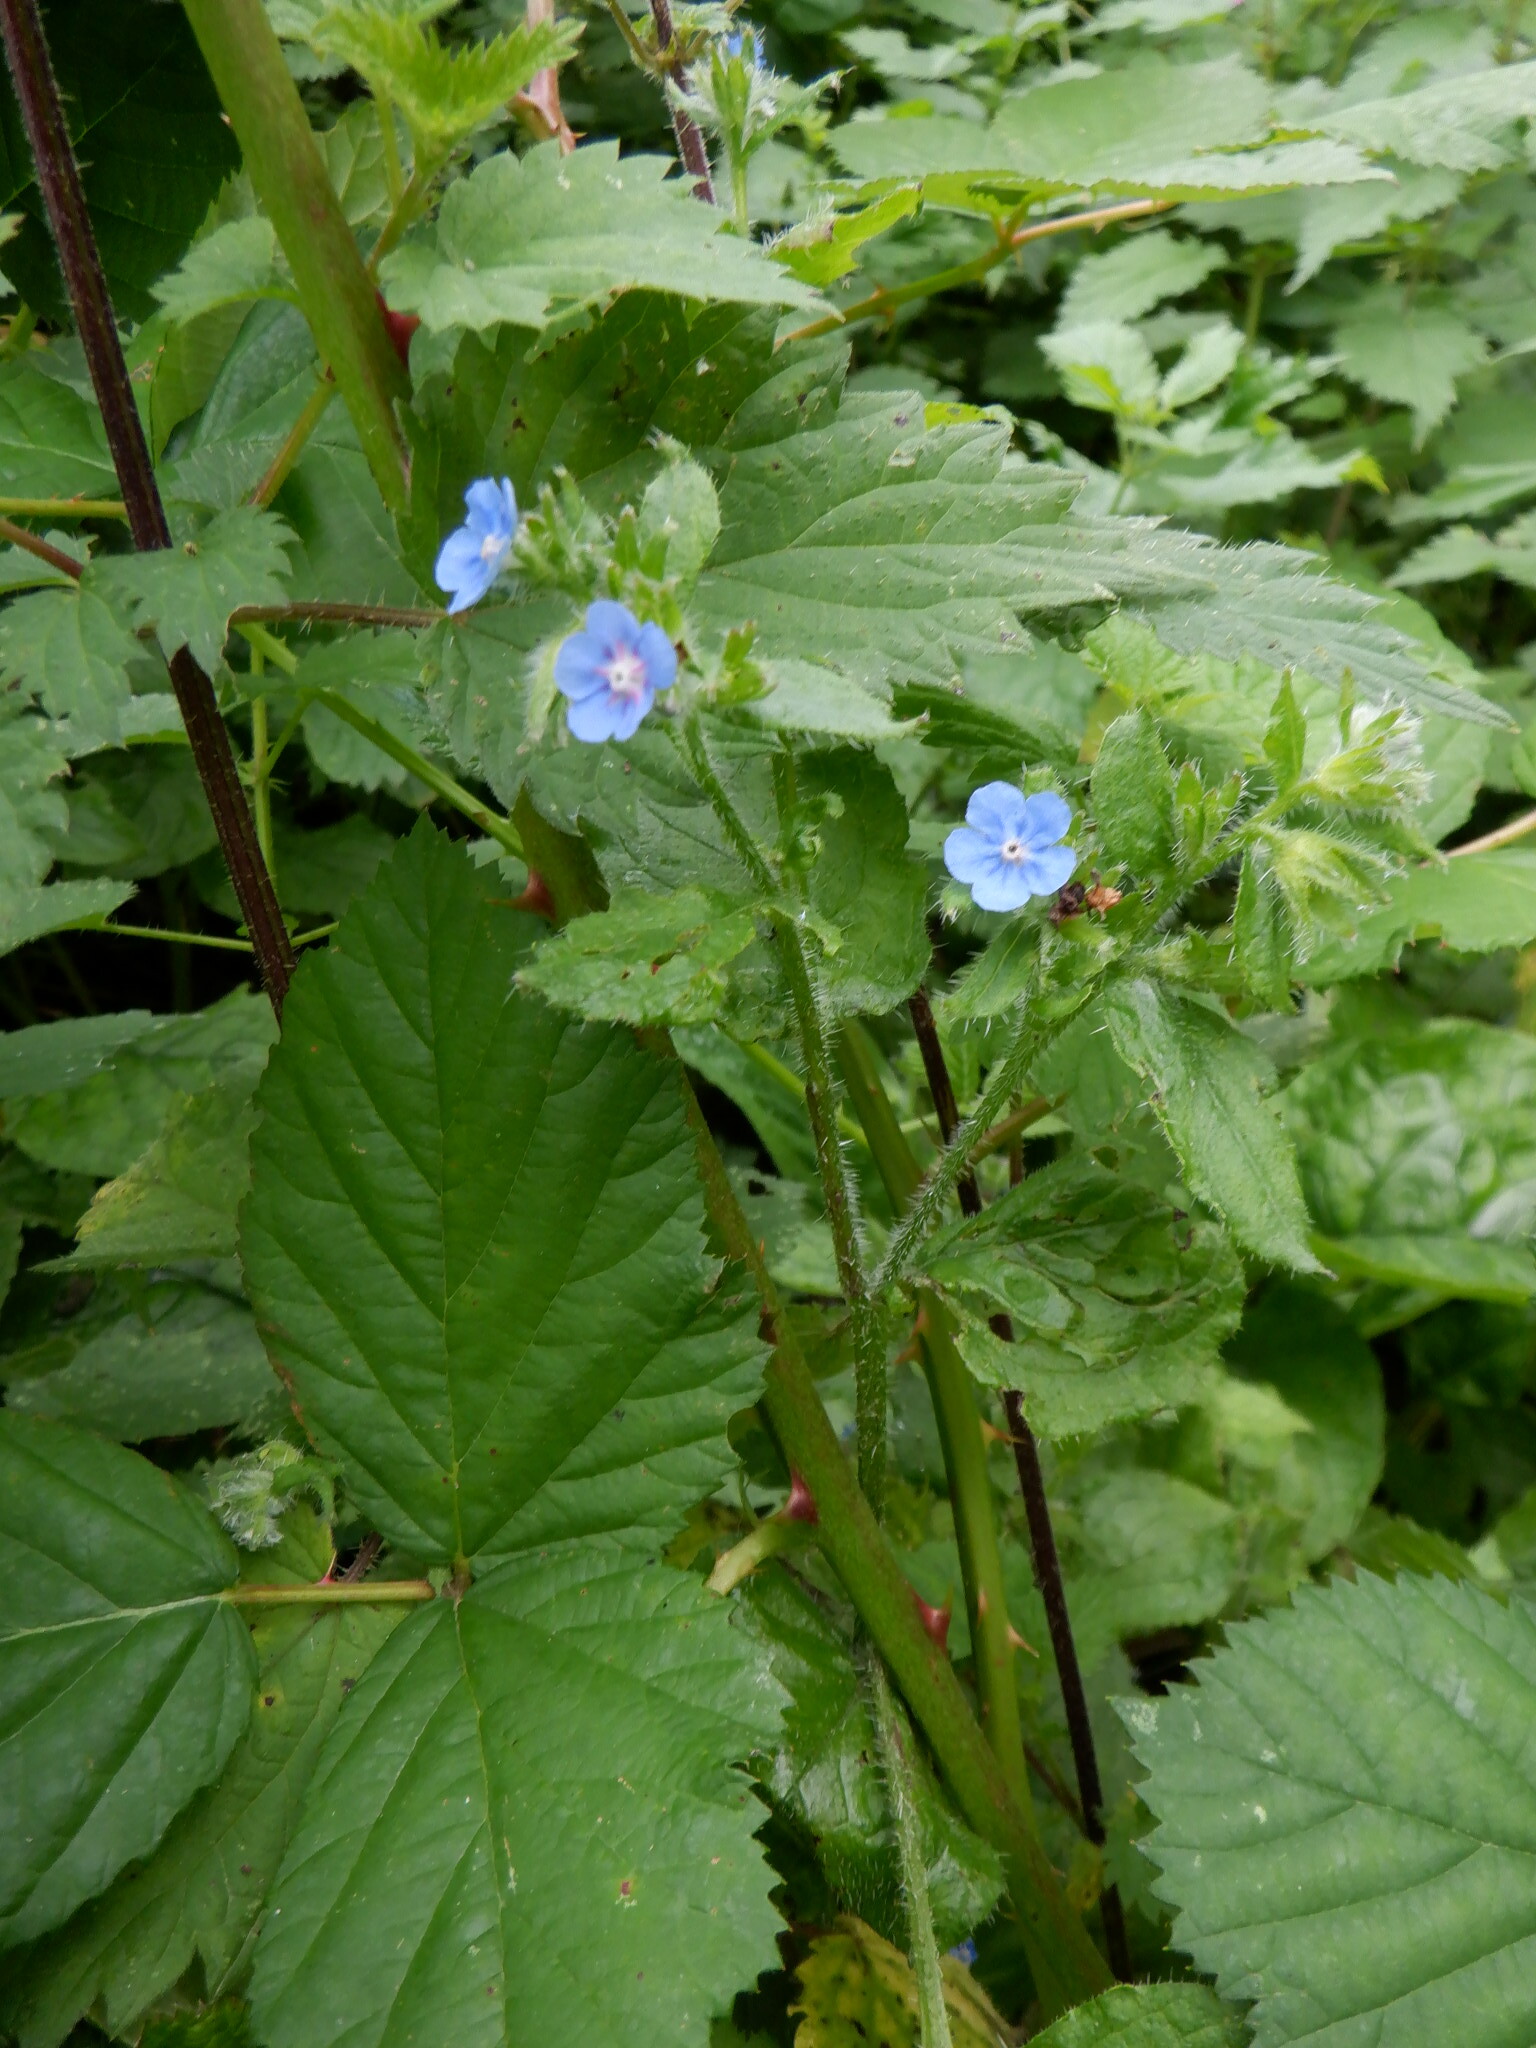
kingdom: Plantae
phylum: Tracheophyta
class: Magnoliopsida
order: Boraginales
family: Boraginaceae
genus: Pentaglottis
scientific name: Pentaglottis sempervirens
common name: Green alkanet
